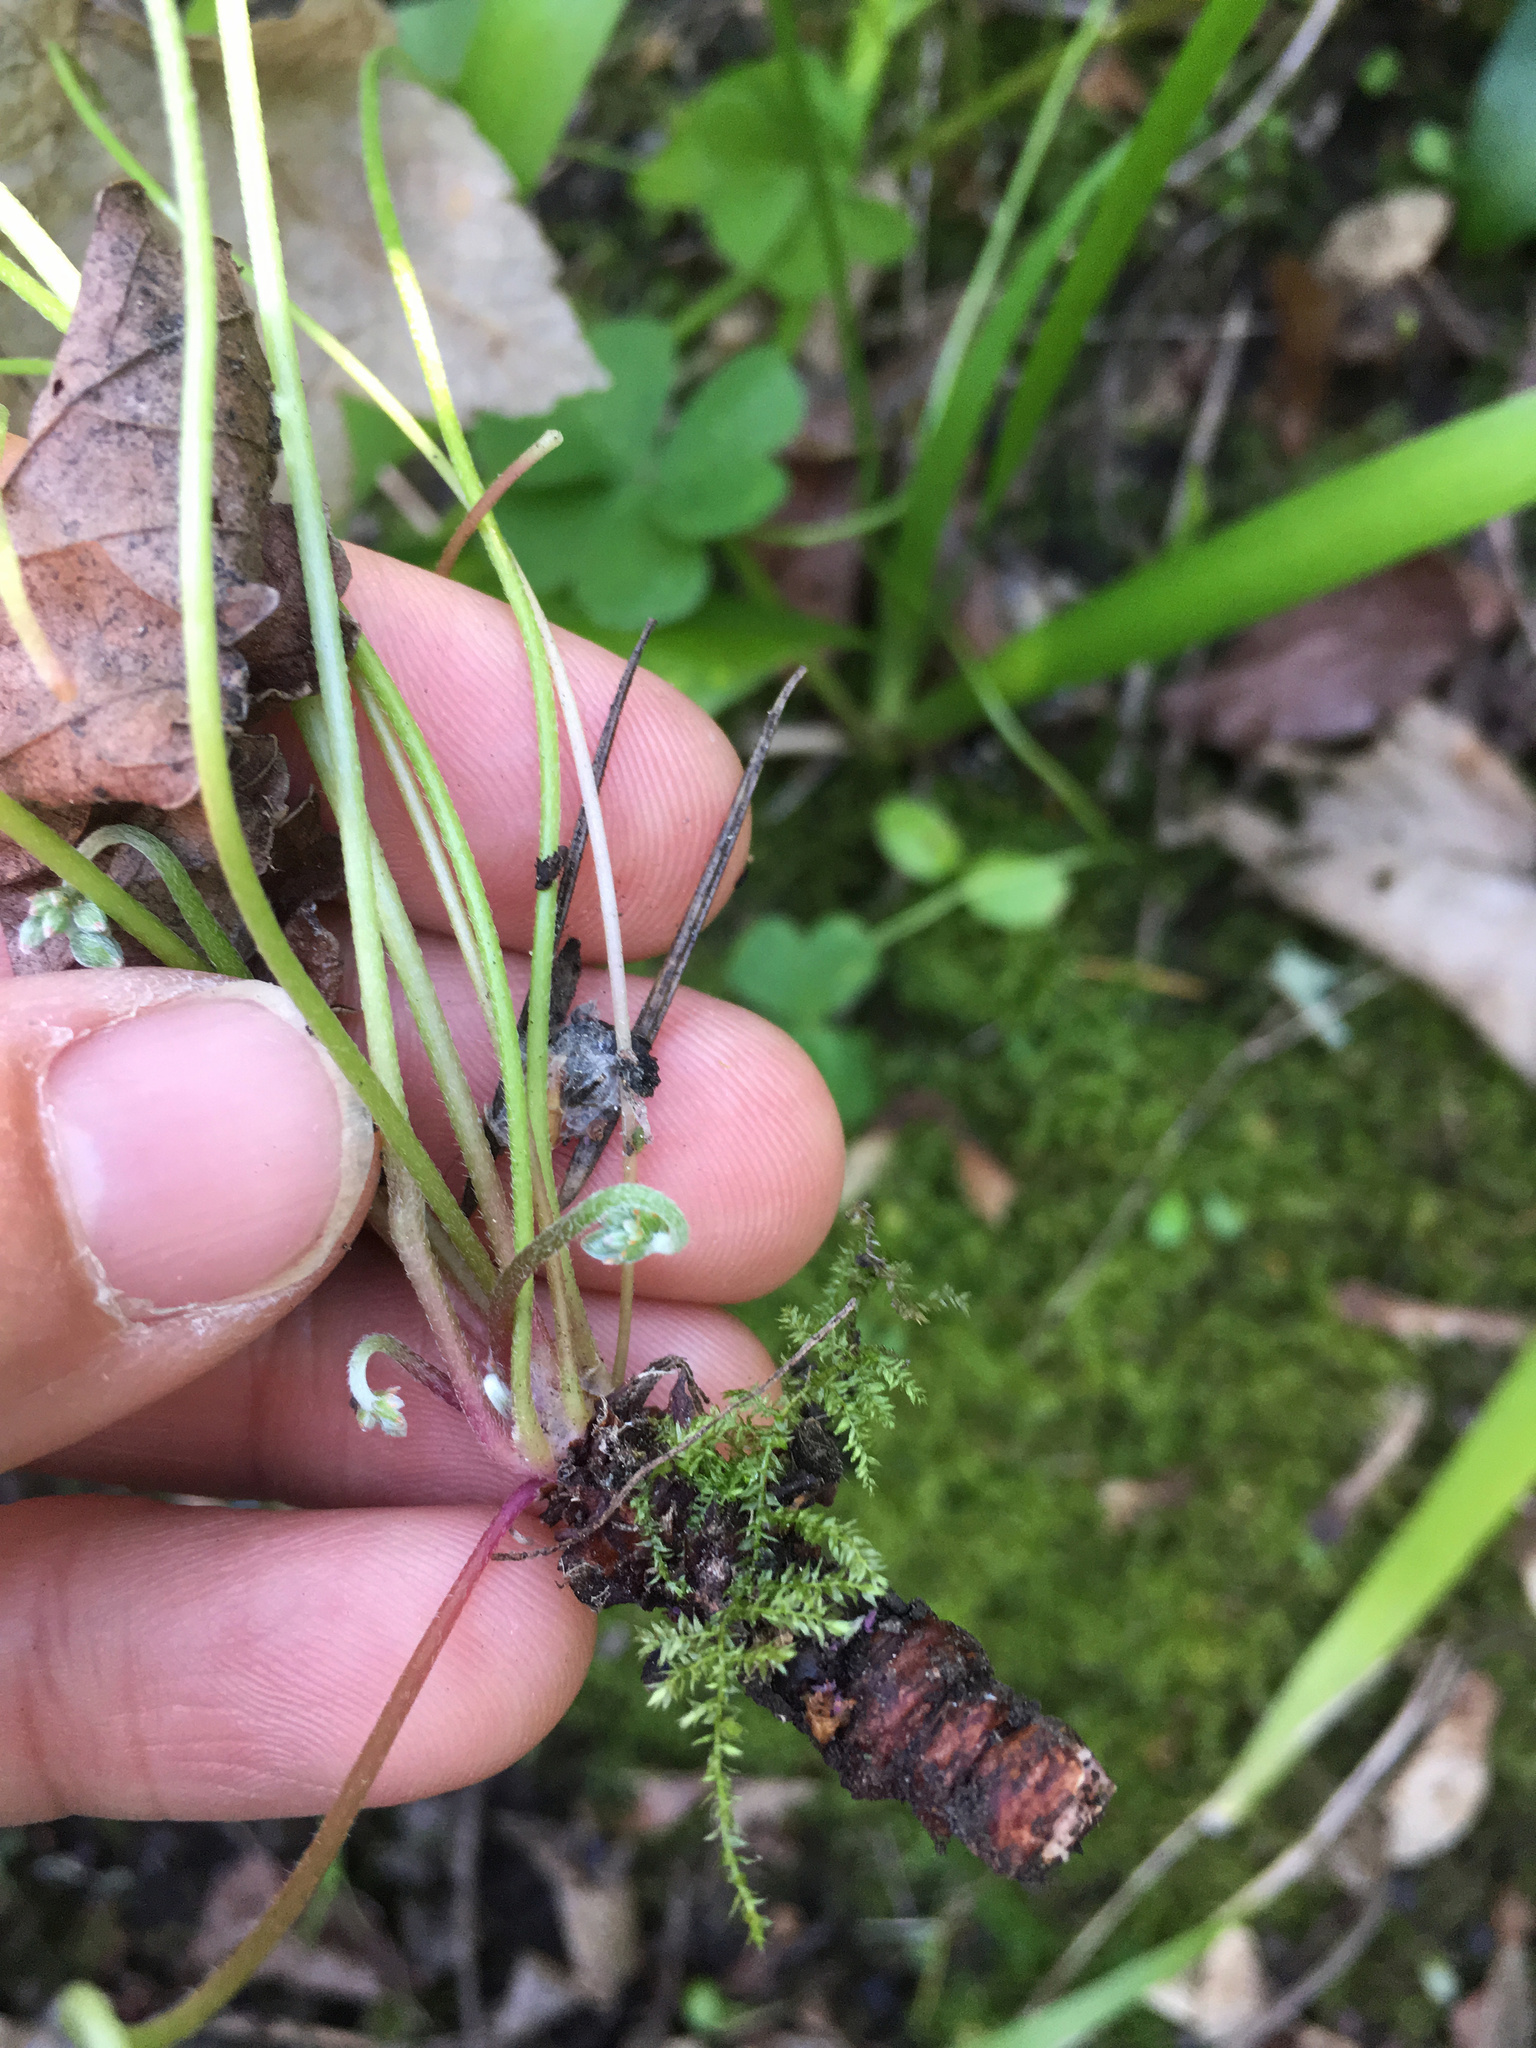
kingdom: Plantae
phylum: Tracheophyta
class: Magnoliopsida
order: Oxalidales
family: Oxalidaceae
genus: Oxalis
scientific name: Oxalis articulata
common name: Pink-sorrel
